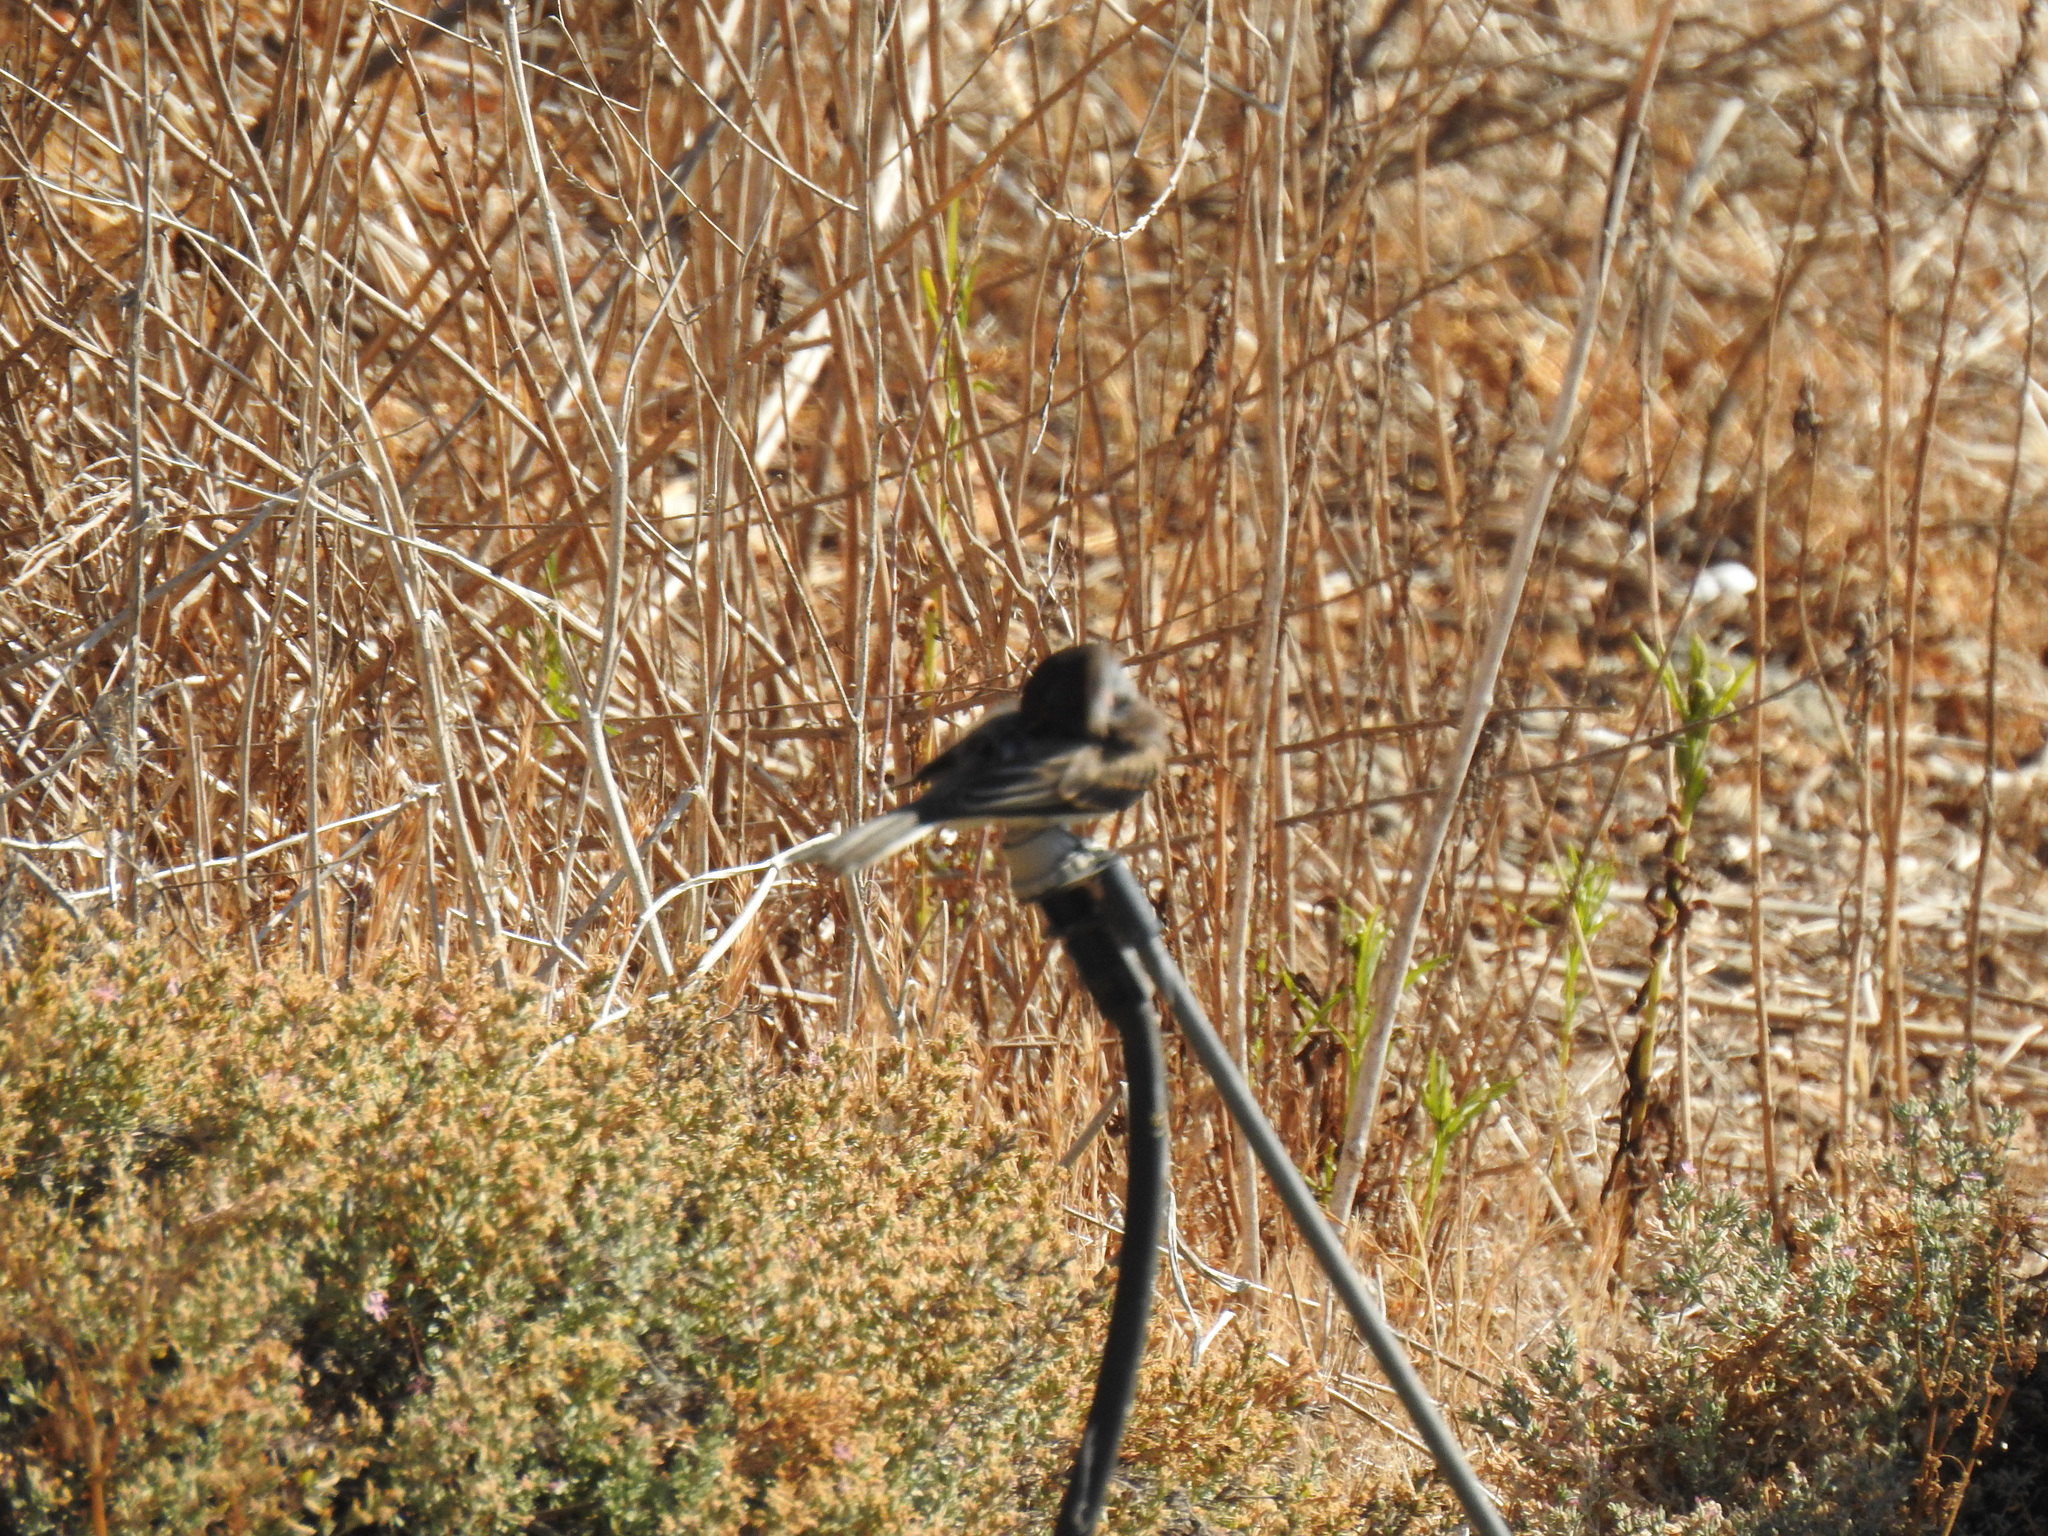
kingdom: Animalia
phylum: Chordata
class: Aves
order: Passeriformes
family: Tyrannidae
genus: Sayornis
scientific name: Sayornis nigricans
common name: Black phoebe
